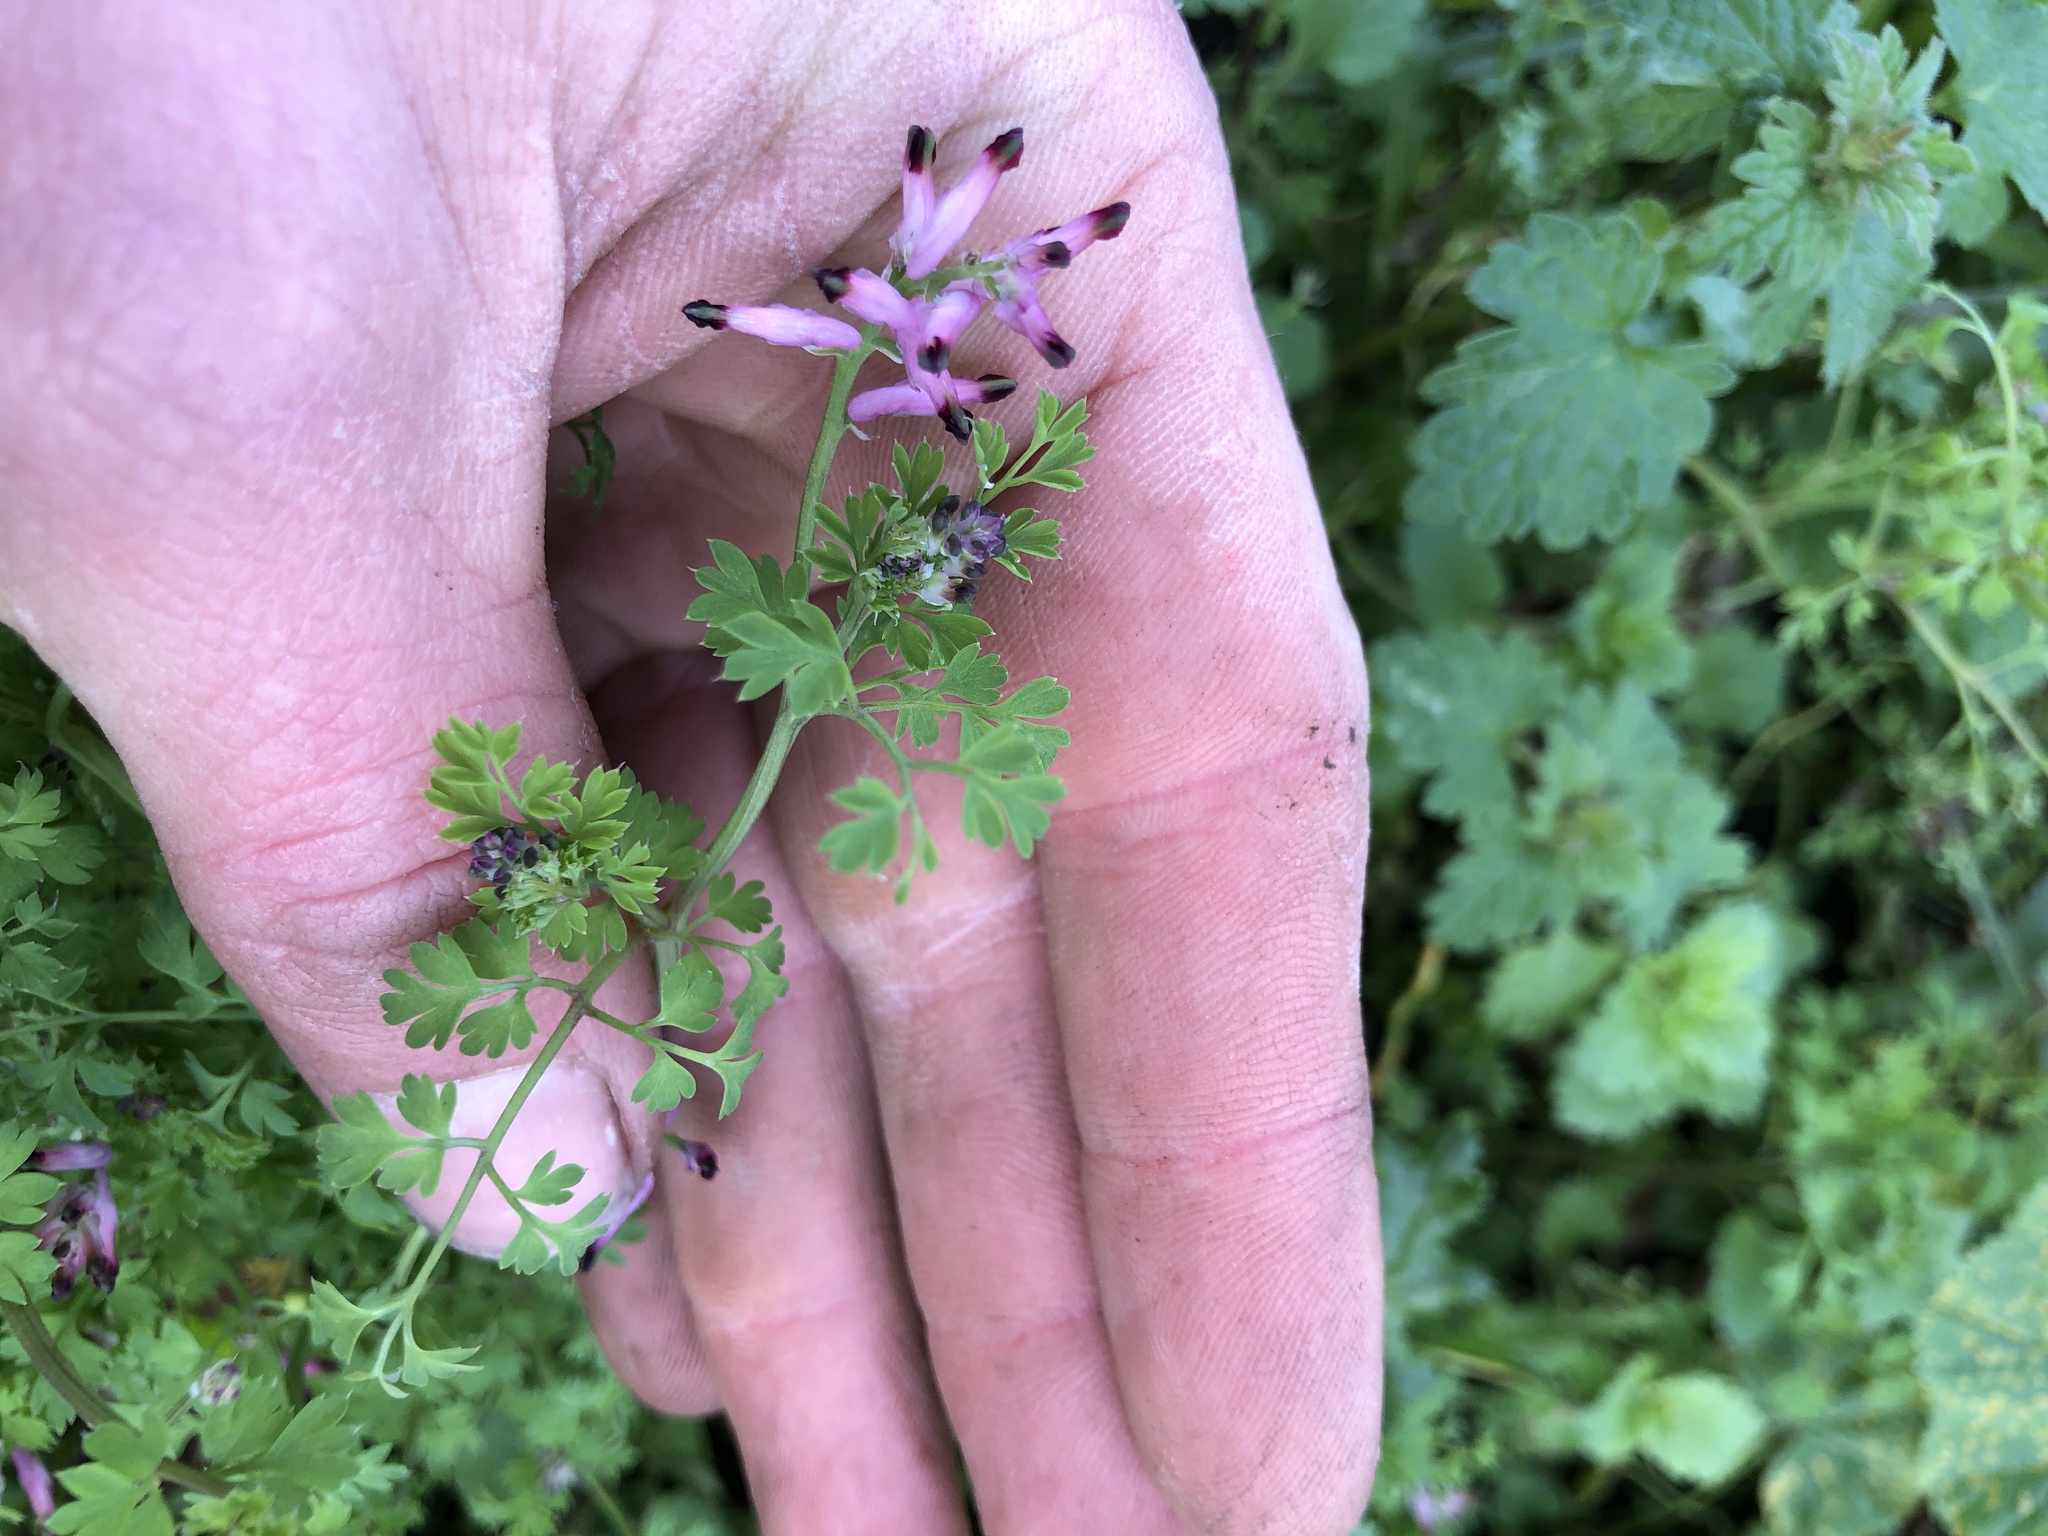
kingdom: Plantae
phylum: Tracheophyta
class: Magnoliopsida
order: Ranunculales
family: Papaveraceae
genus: Fumaria
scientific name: Fumaria muralis
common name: Common ramping-fumitory
